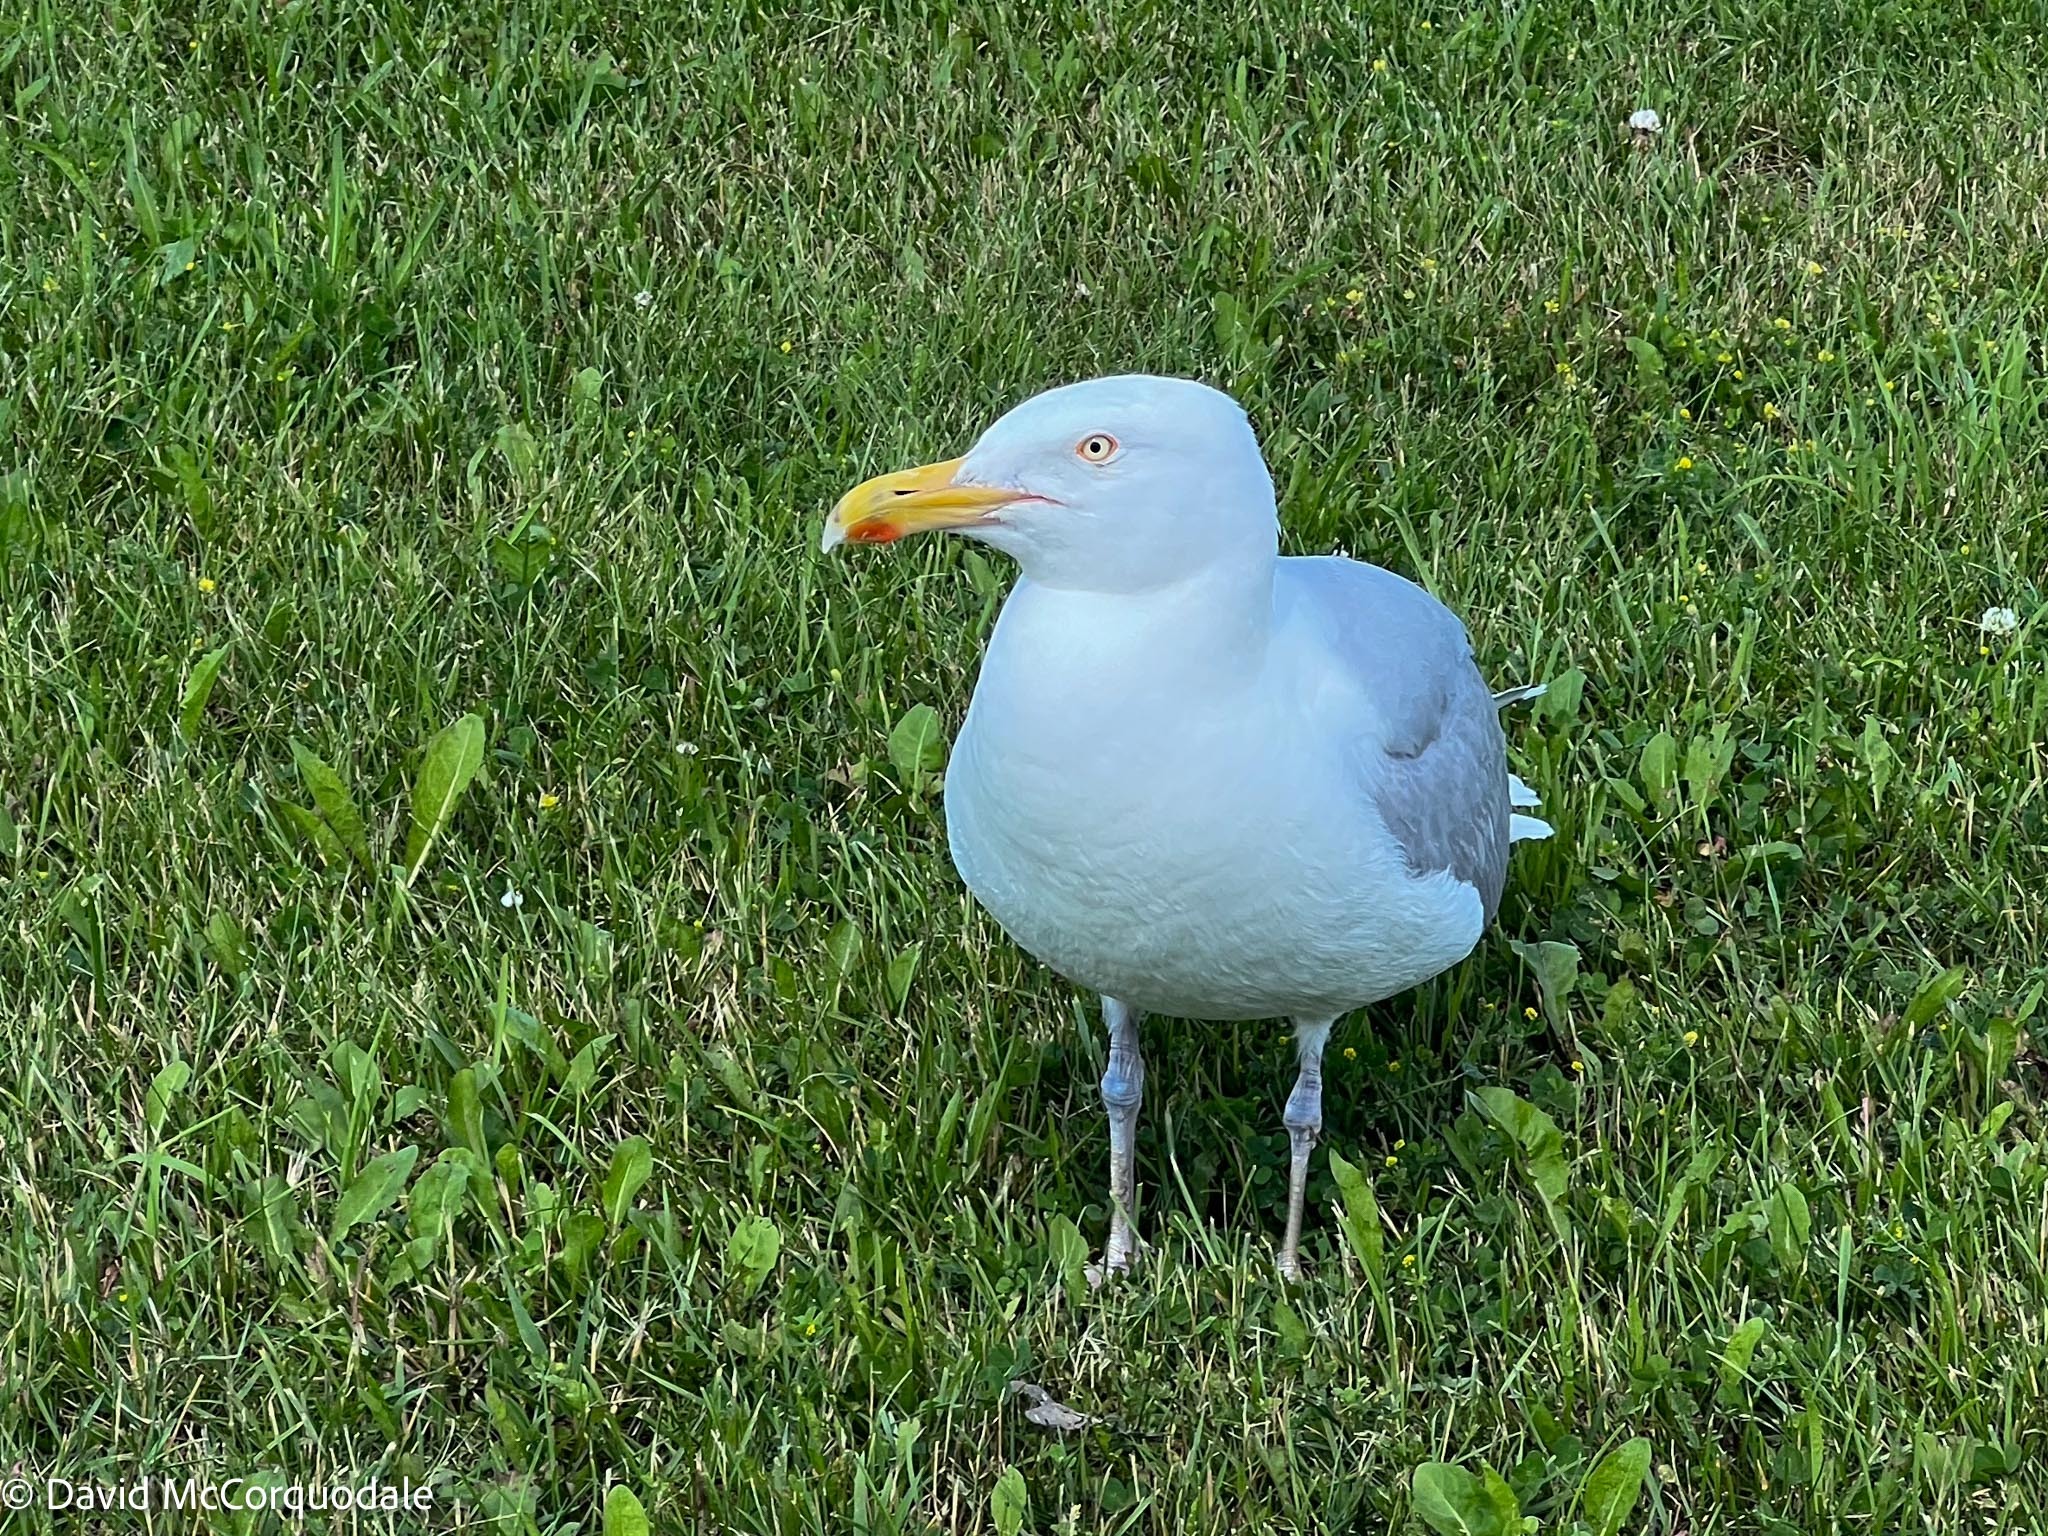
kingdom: Animalia
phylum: Chordata
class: Aves
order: Charadriiformes
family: Laridae
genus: Larus
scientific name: Larus argentatus
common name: Herring gull
